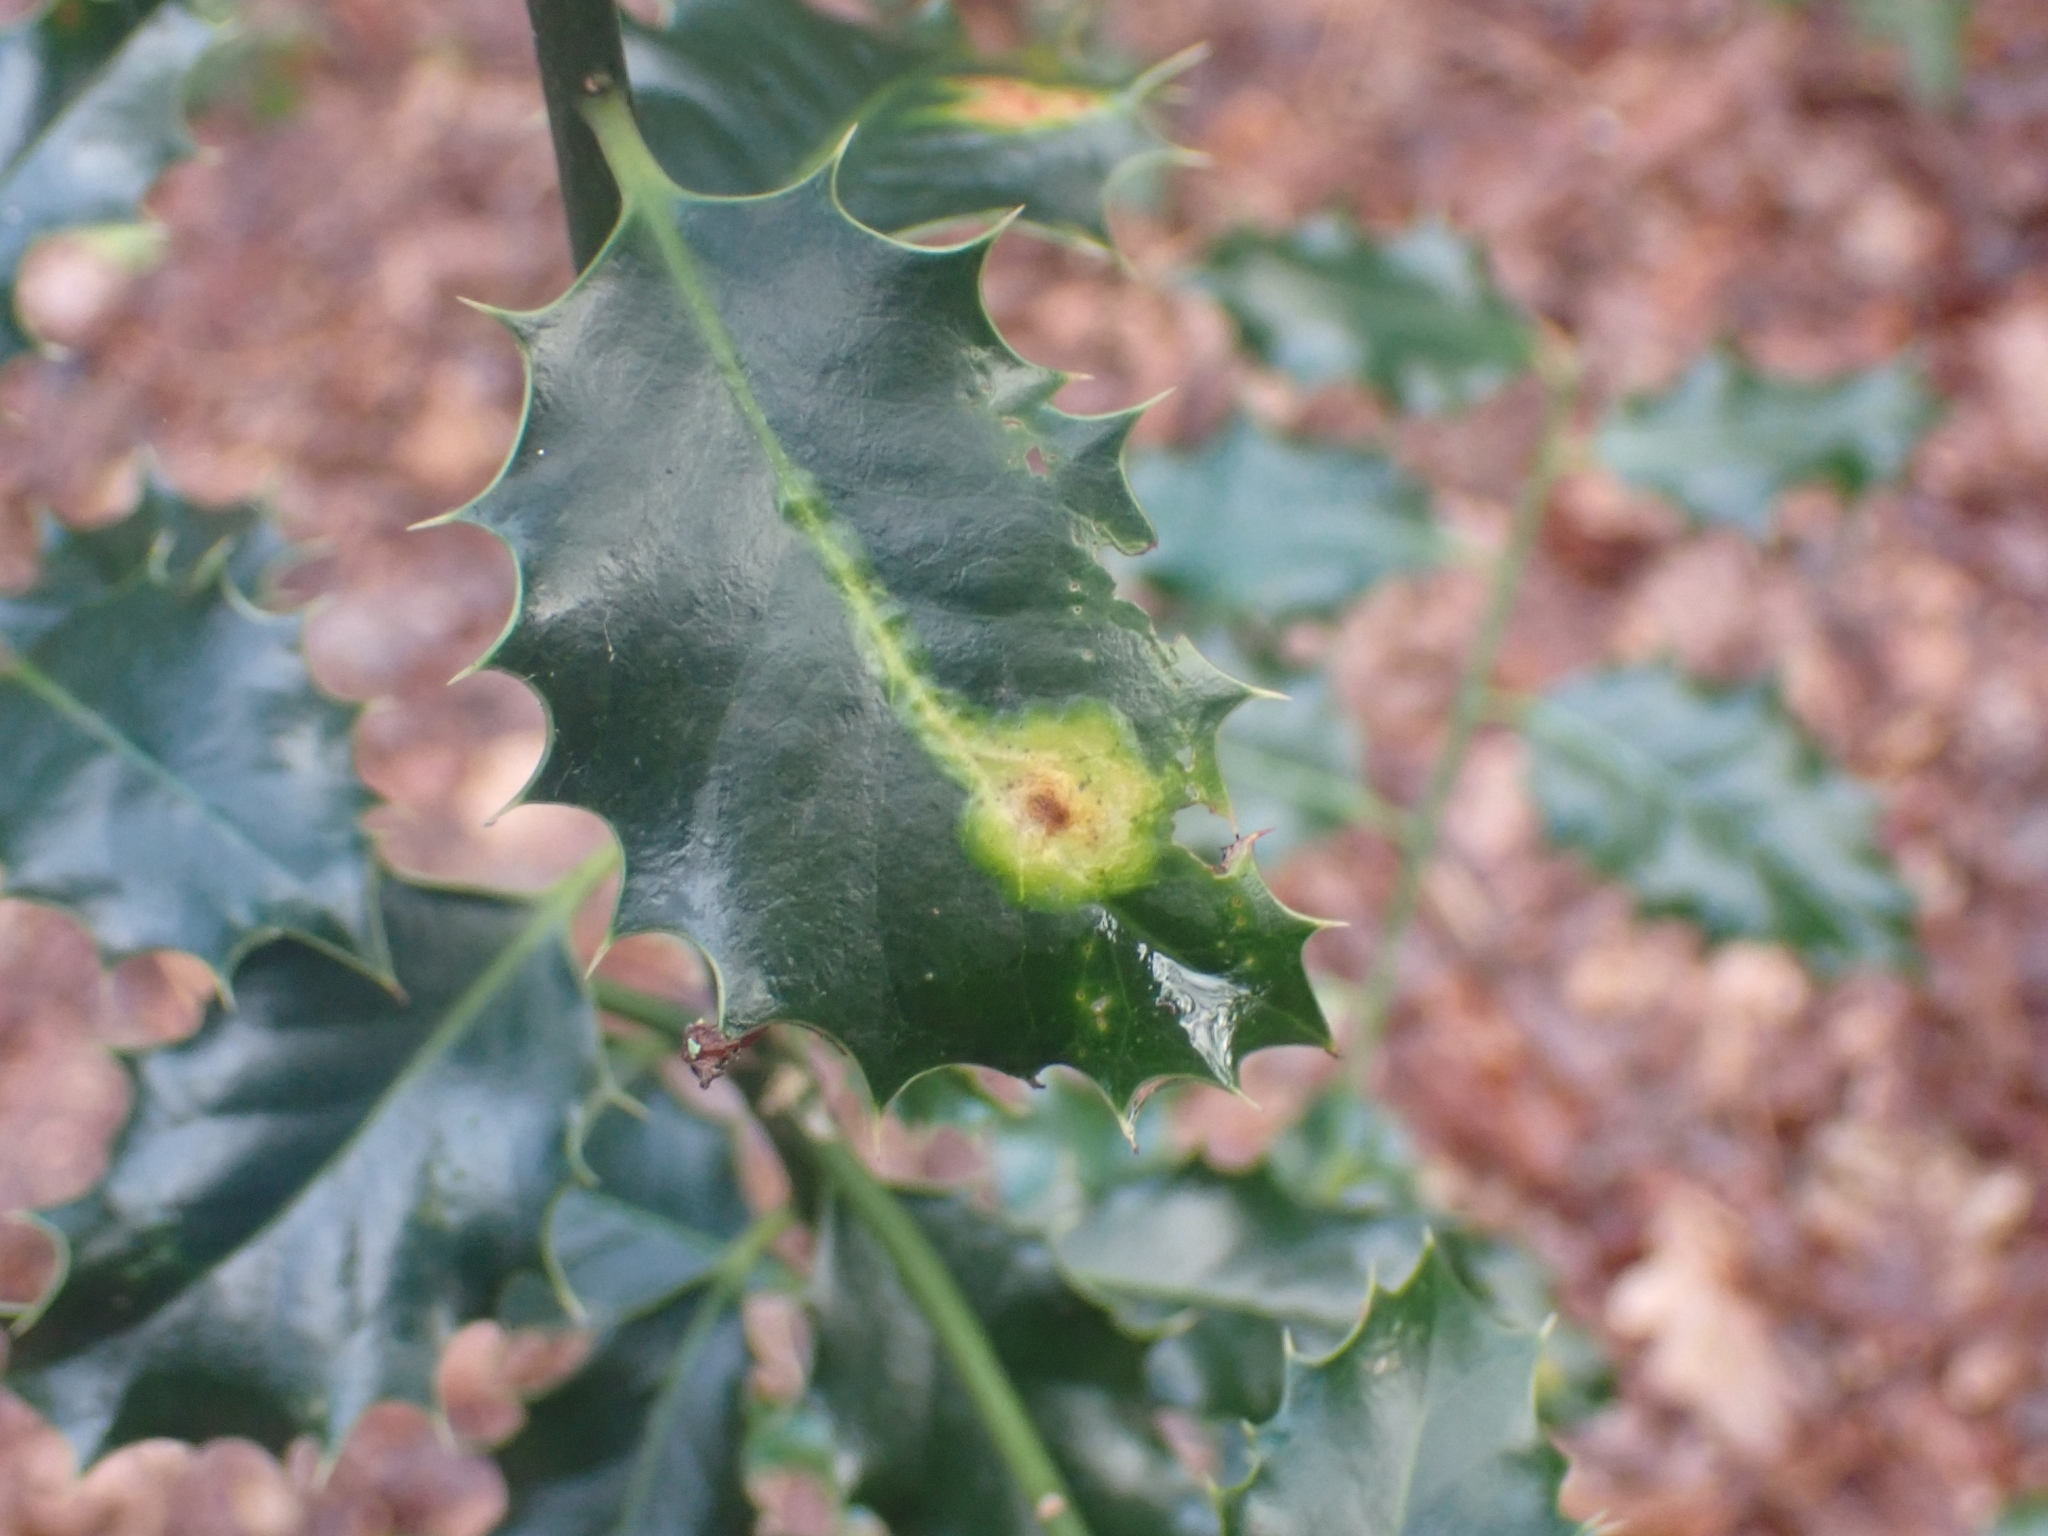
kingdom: Animalia
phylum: Arthropoda
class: Insecta
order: Diptera
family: Agromyzidae
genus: Phytomyza
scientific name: Phytomyza ilicis
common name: Holly leafminer
